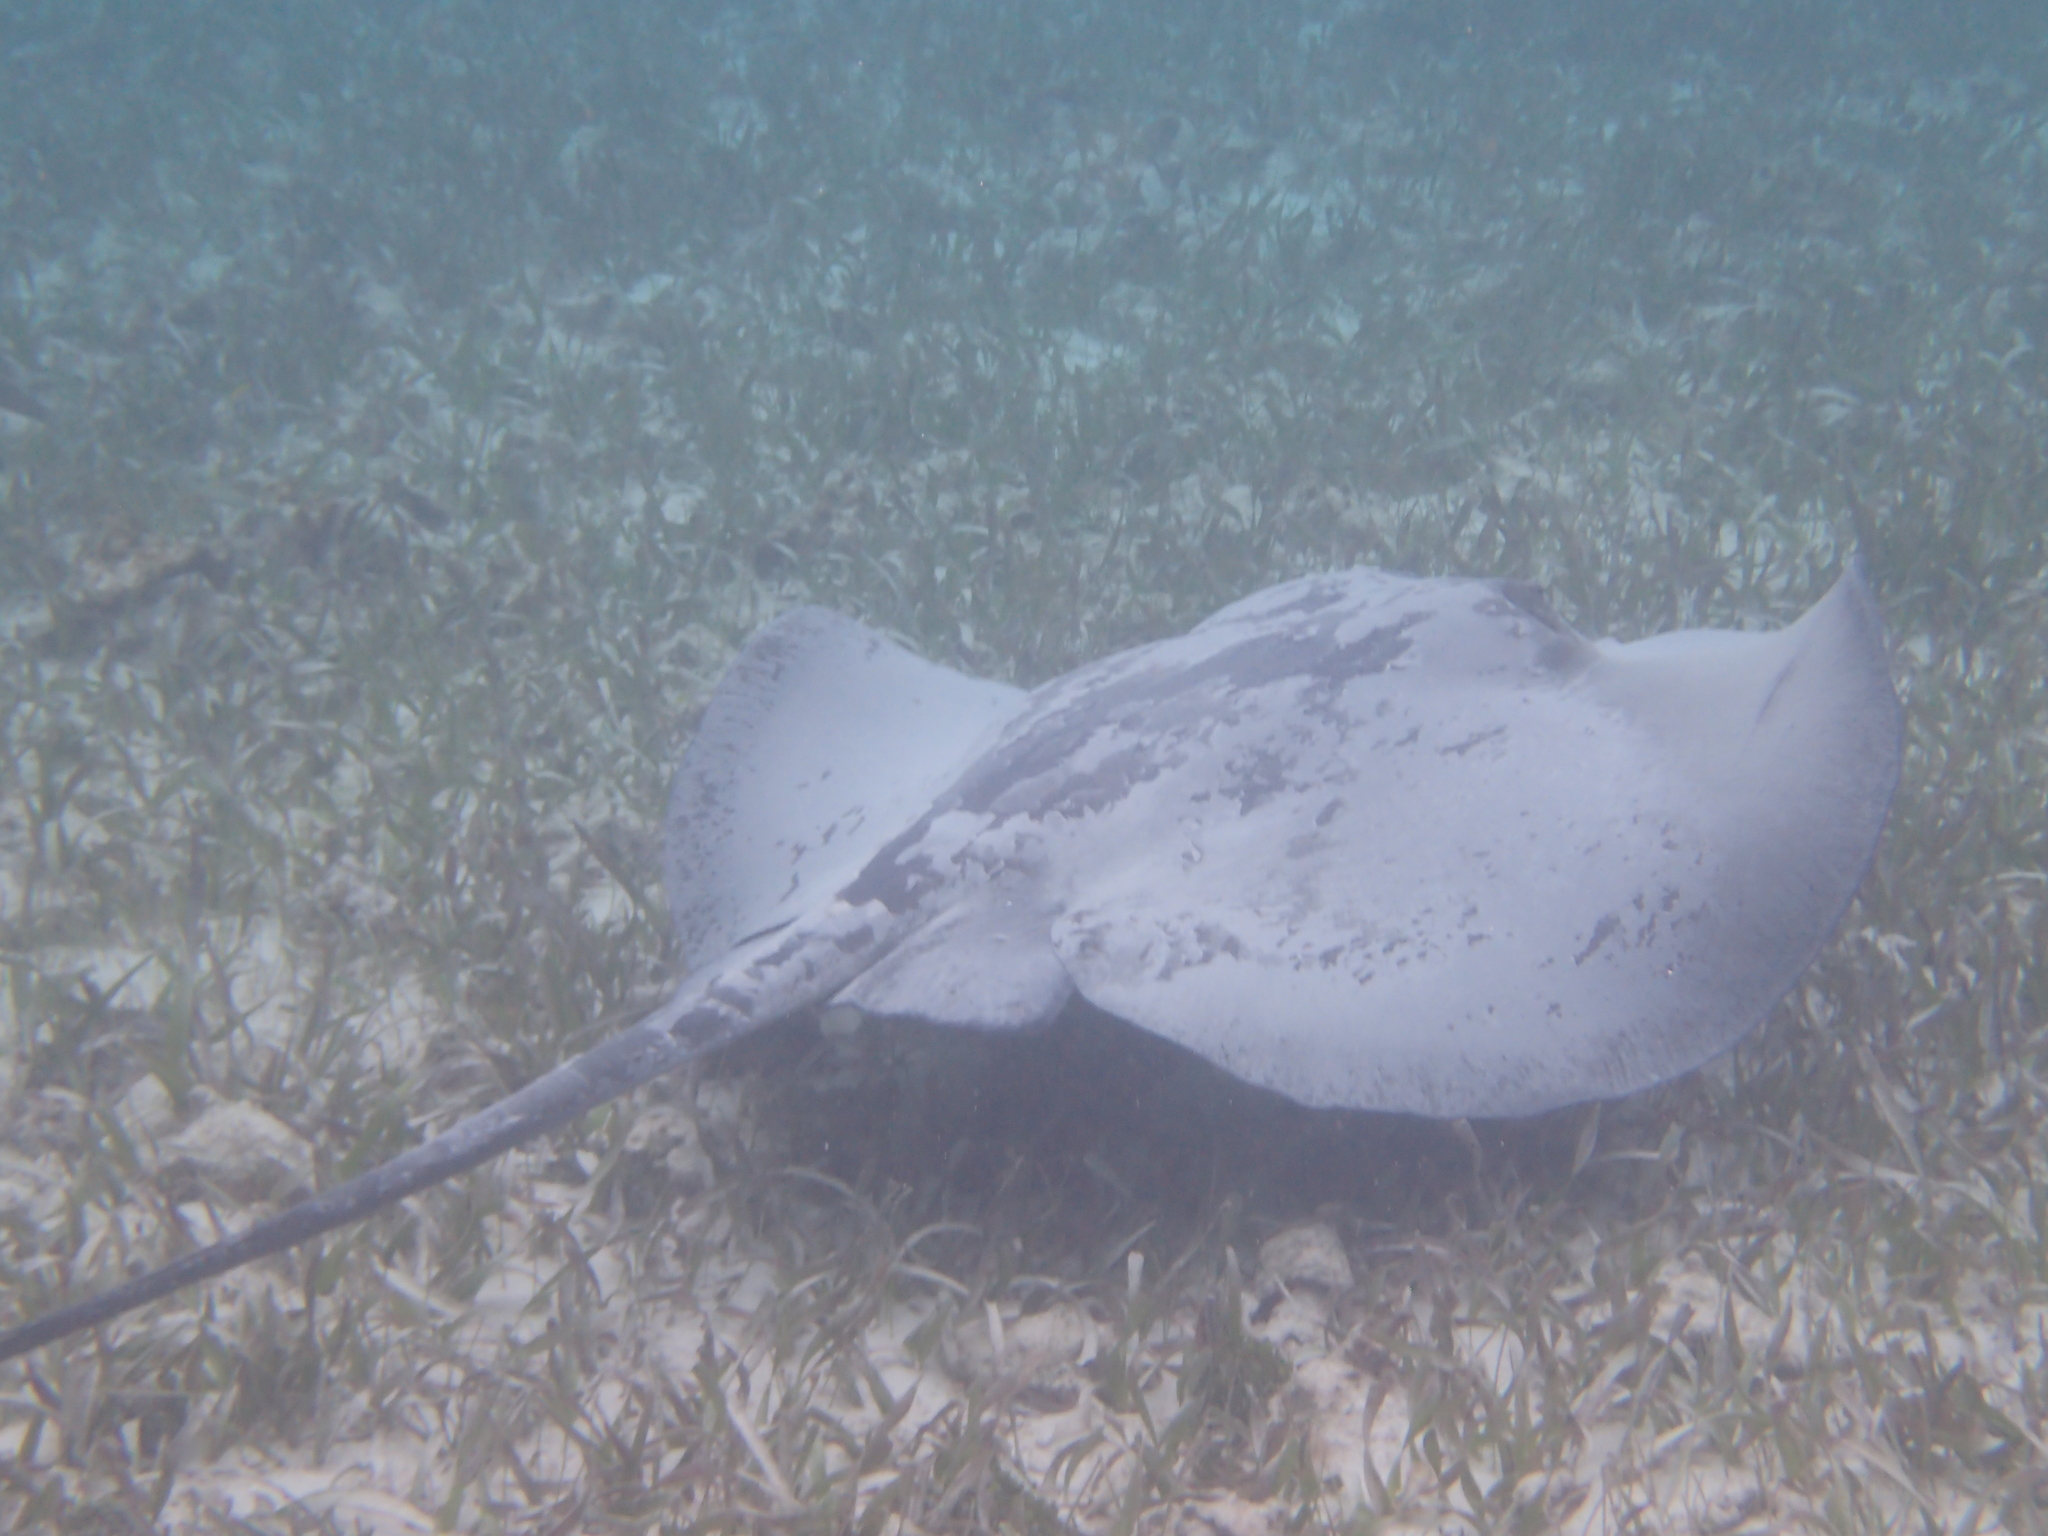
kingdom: Animalia
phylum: Chordata
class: Elasmobranchii
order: Myliobatiformes
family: Potamotrygonidae
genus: Styracura
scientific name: Styracura schmardae
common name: Atlantic chupare
